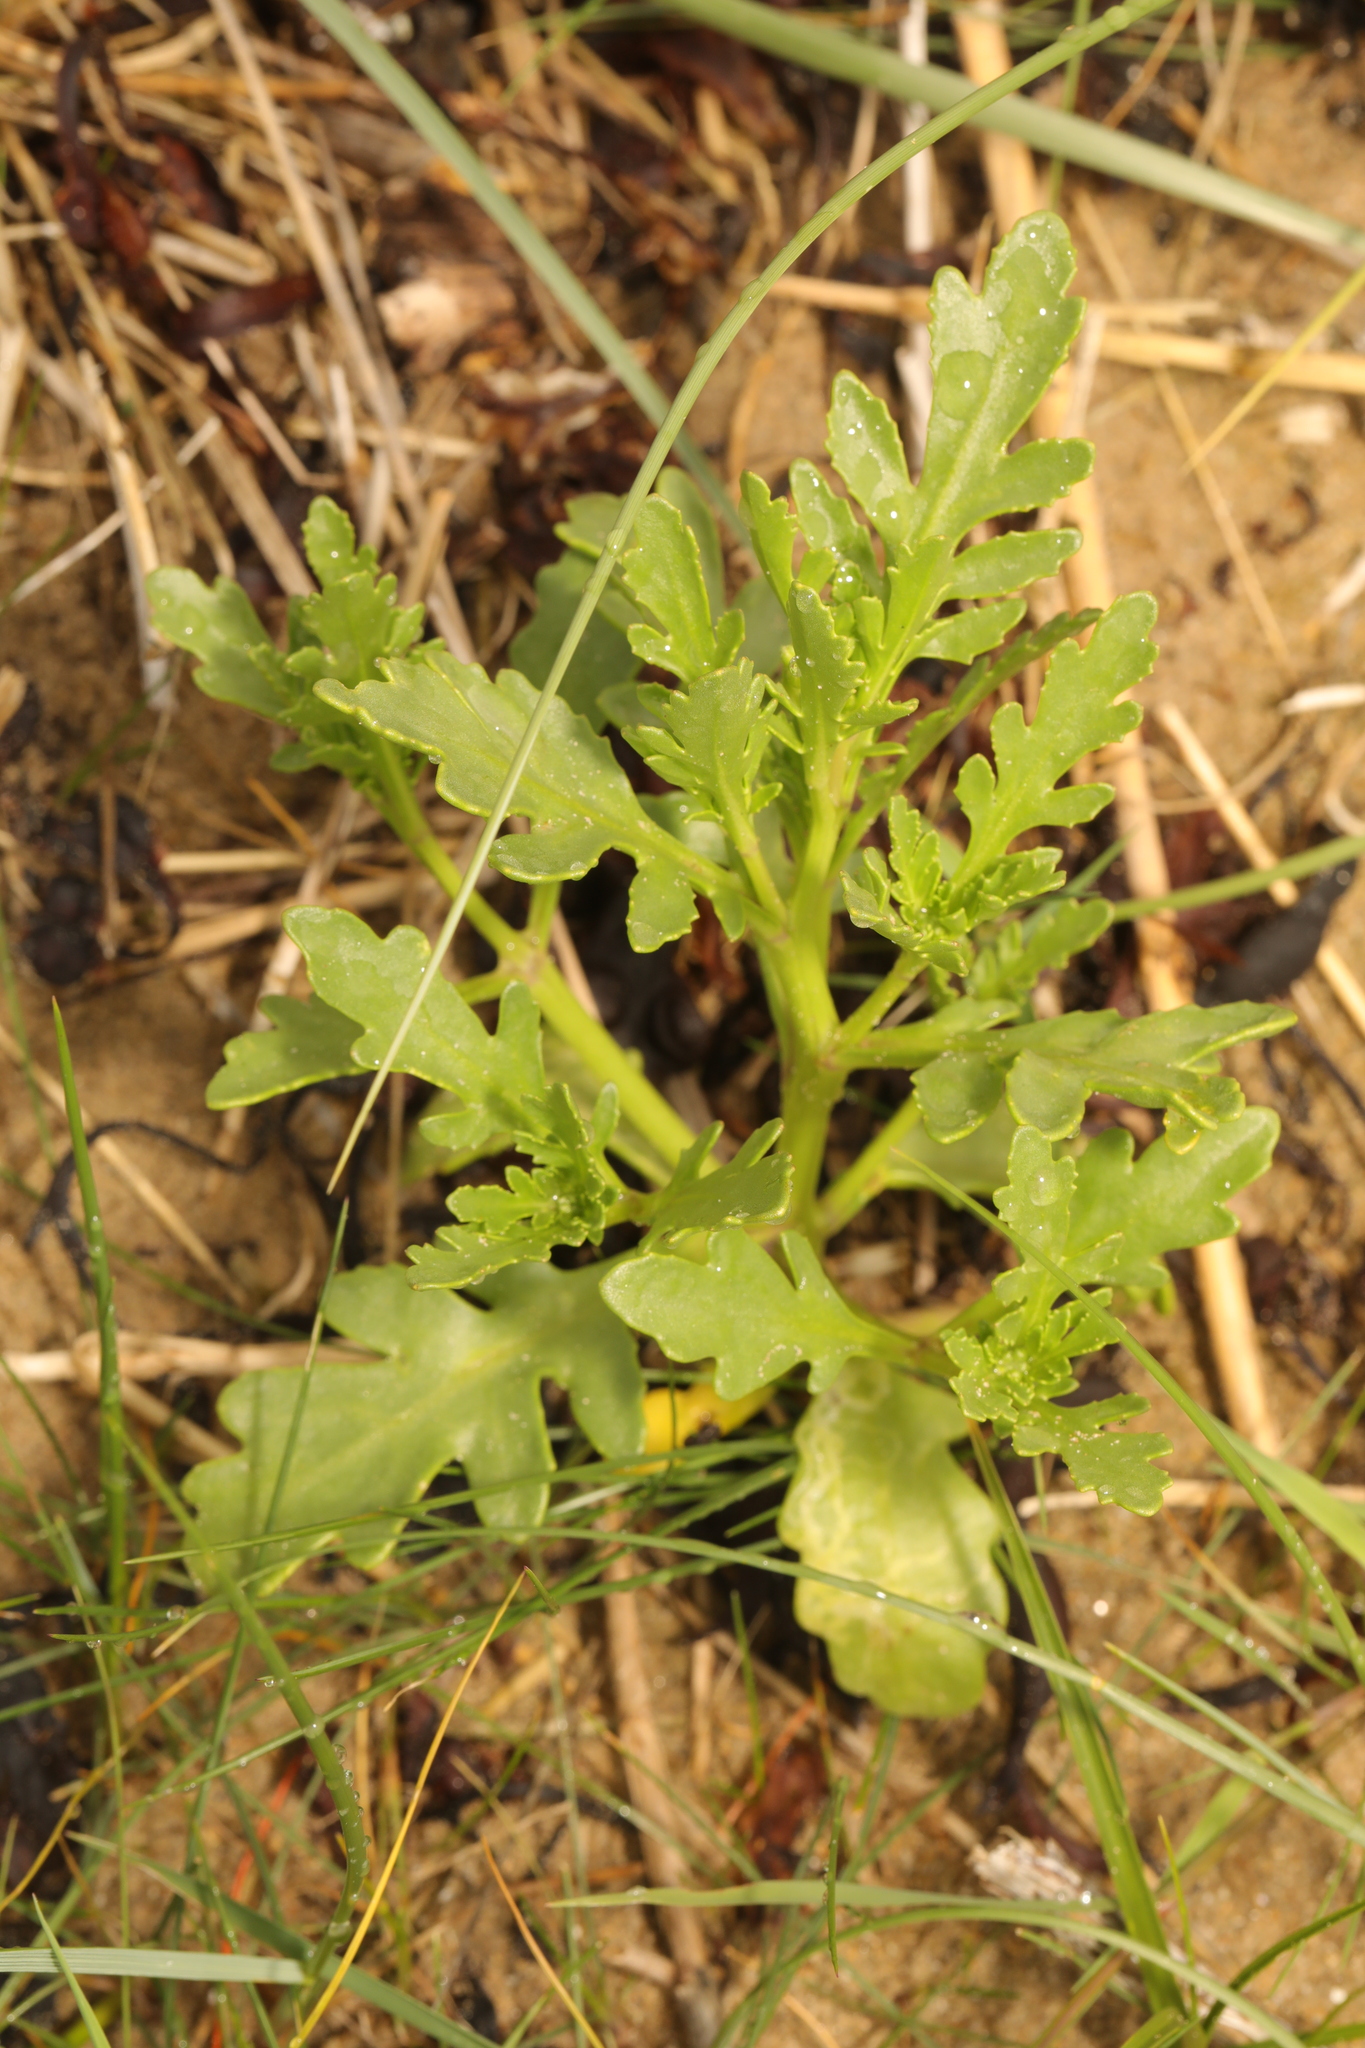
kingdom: Plantae
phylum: Tracheophyta
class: Magnoliopsida
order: Brassicales
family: Brassicaceae
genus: Cakile
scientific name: Cakile maritima
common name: Sea rocket
